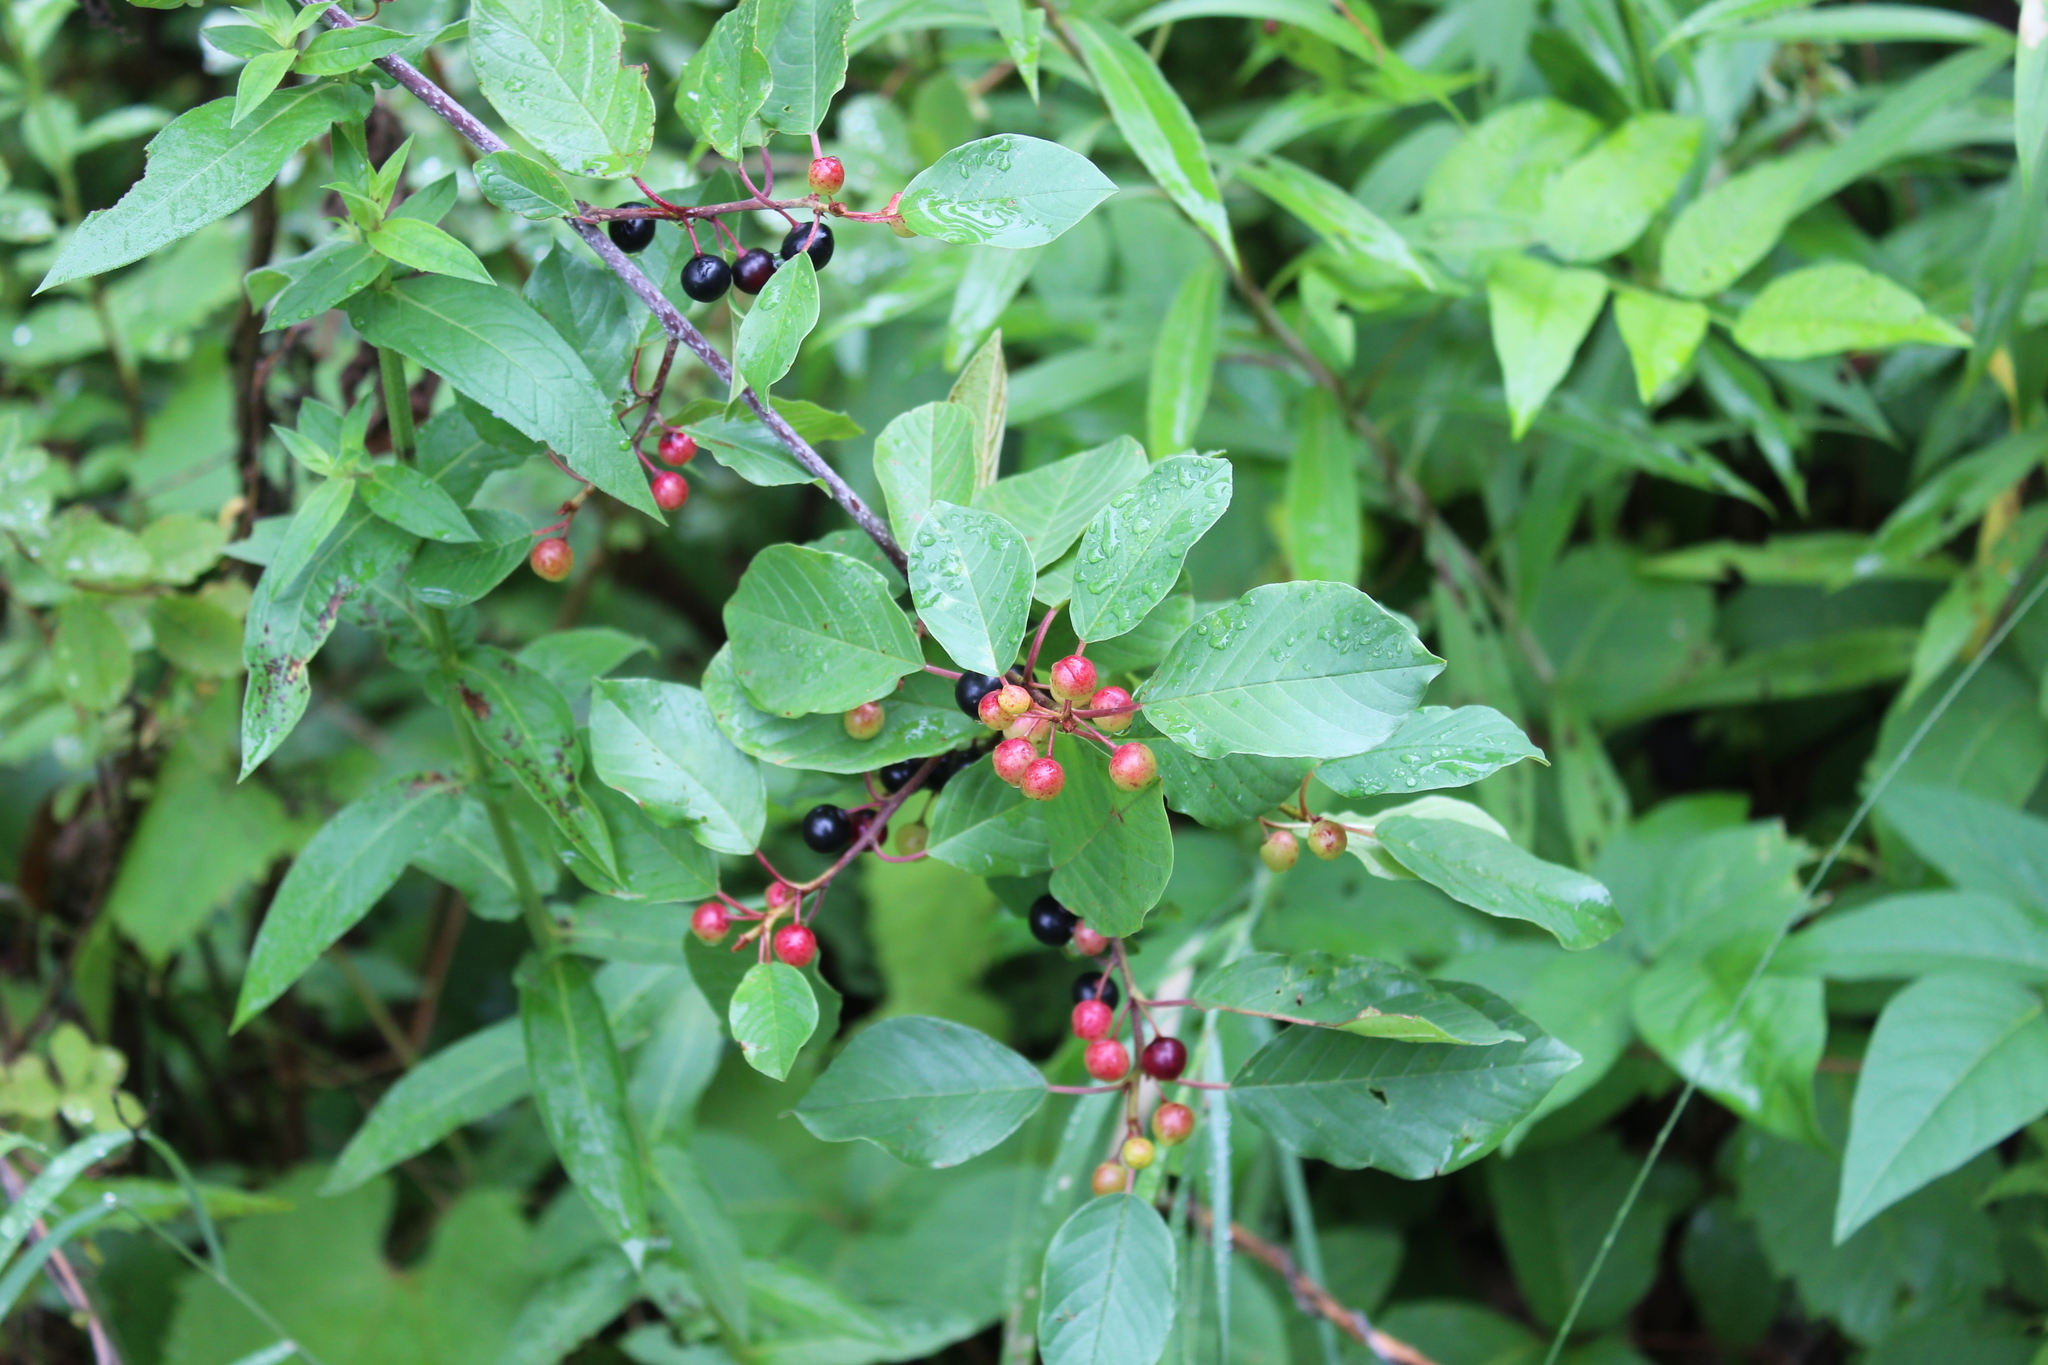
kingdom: Plantae
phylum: Tracheophyta
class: Magnoliopsida
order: Rosales
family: Rhamnaceae
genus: Frangula
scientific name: Frangula alnus
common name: Alder buckthorn
